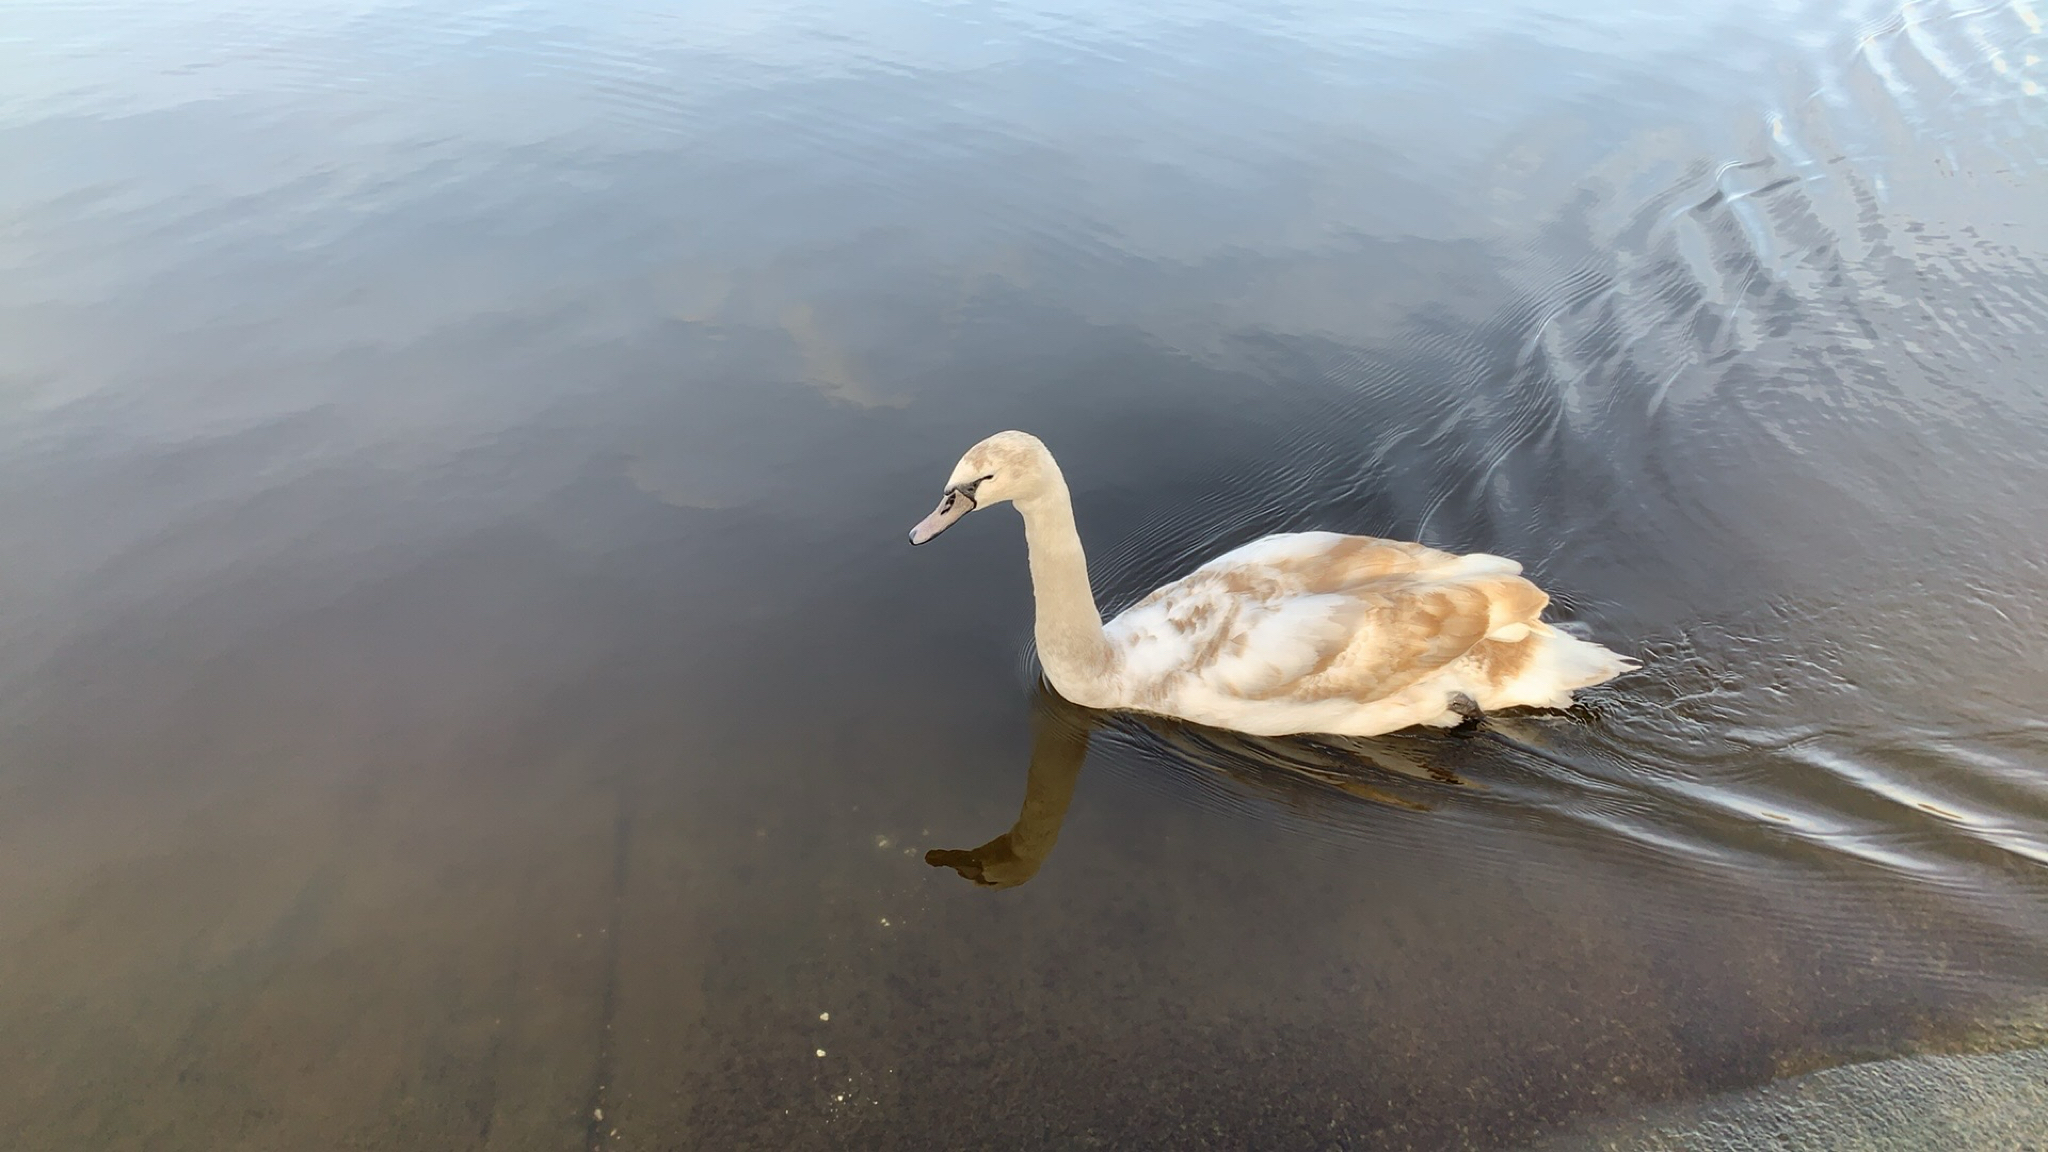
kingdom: Animalia
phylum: Chordata
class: Aves
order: Anseriformes
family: Anatidae
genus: Cygnus
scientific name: Cygnus olor
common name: Mute swan
